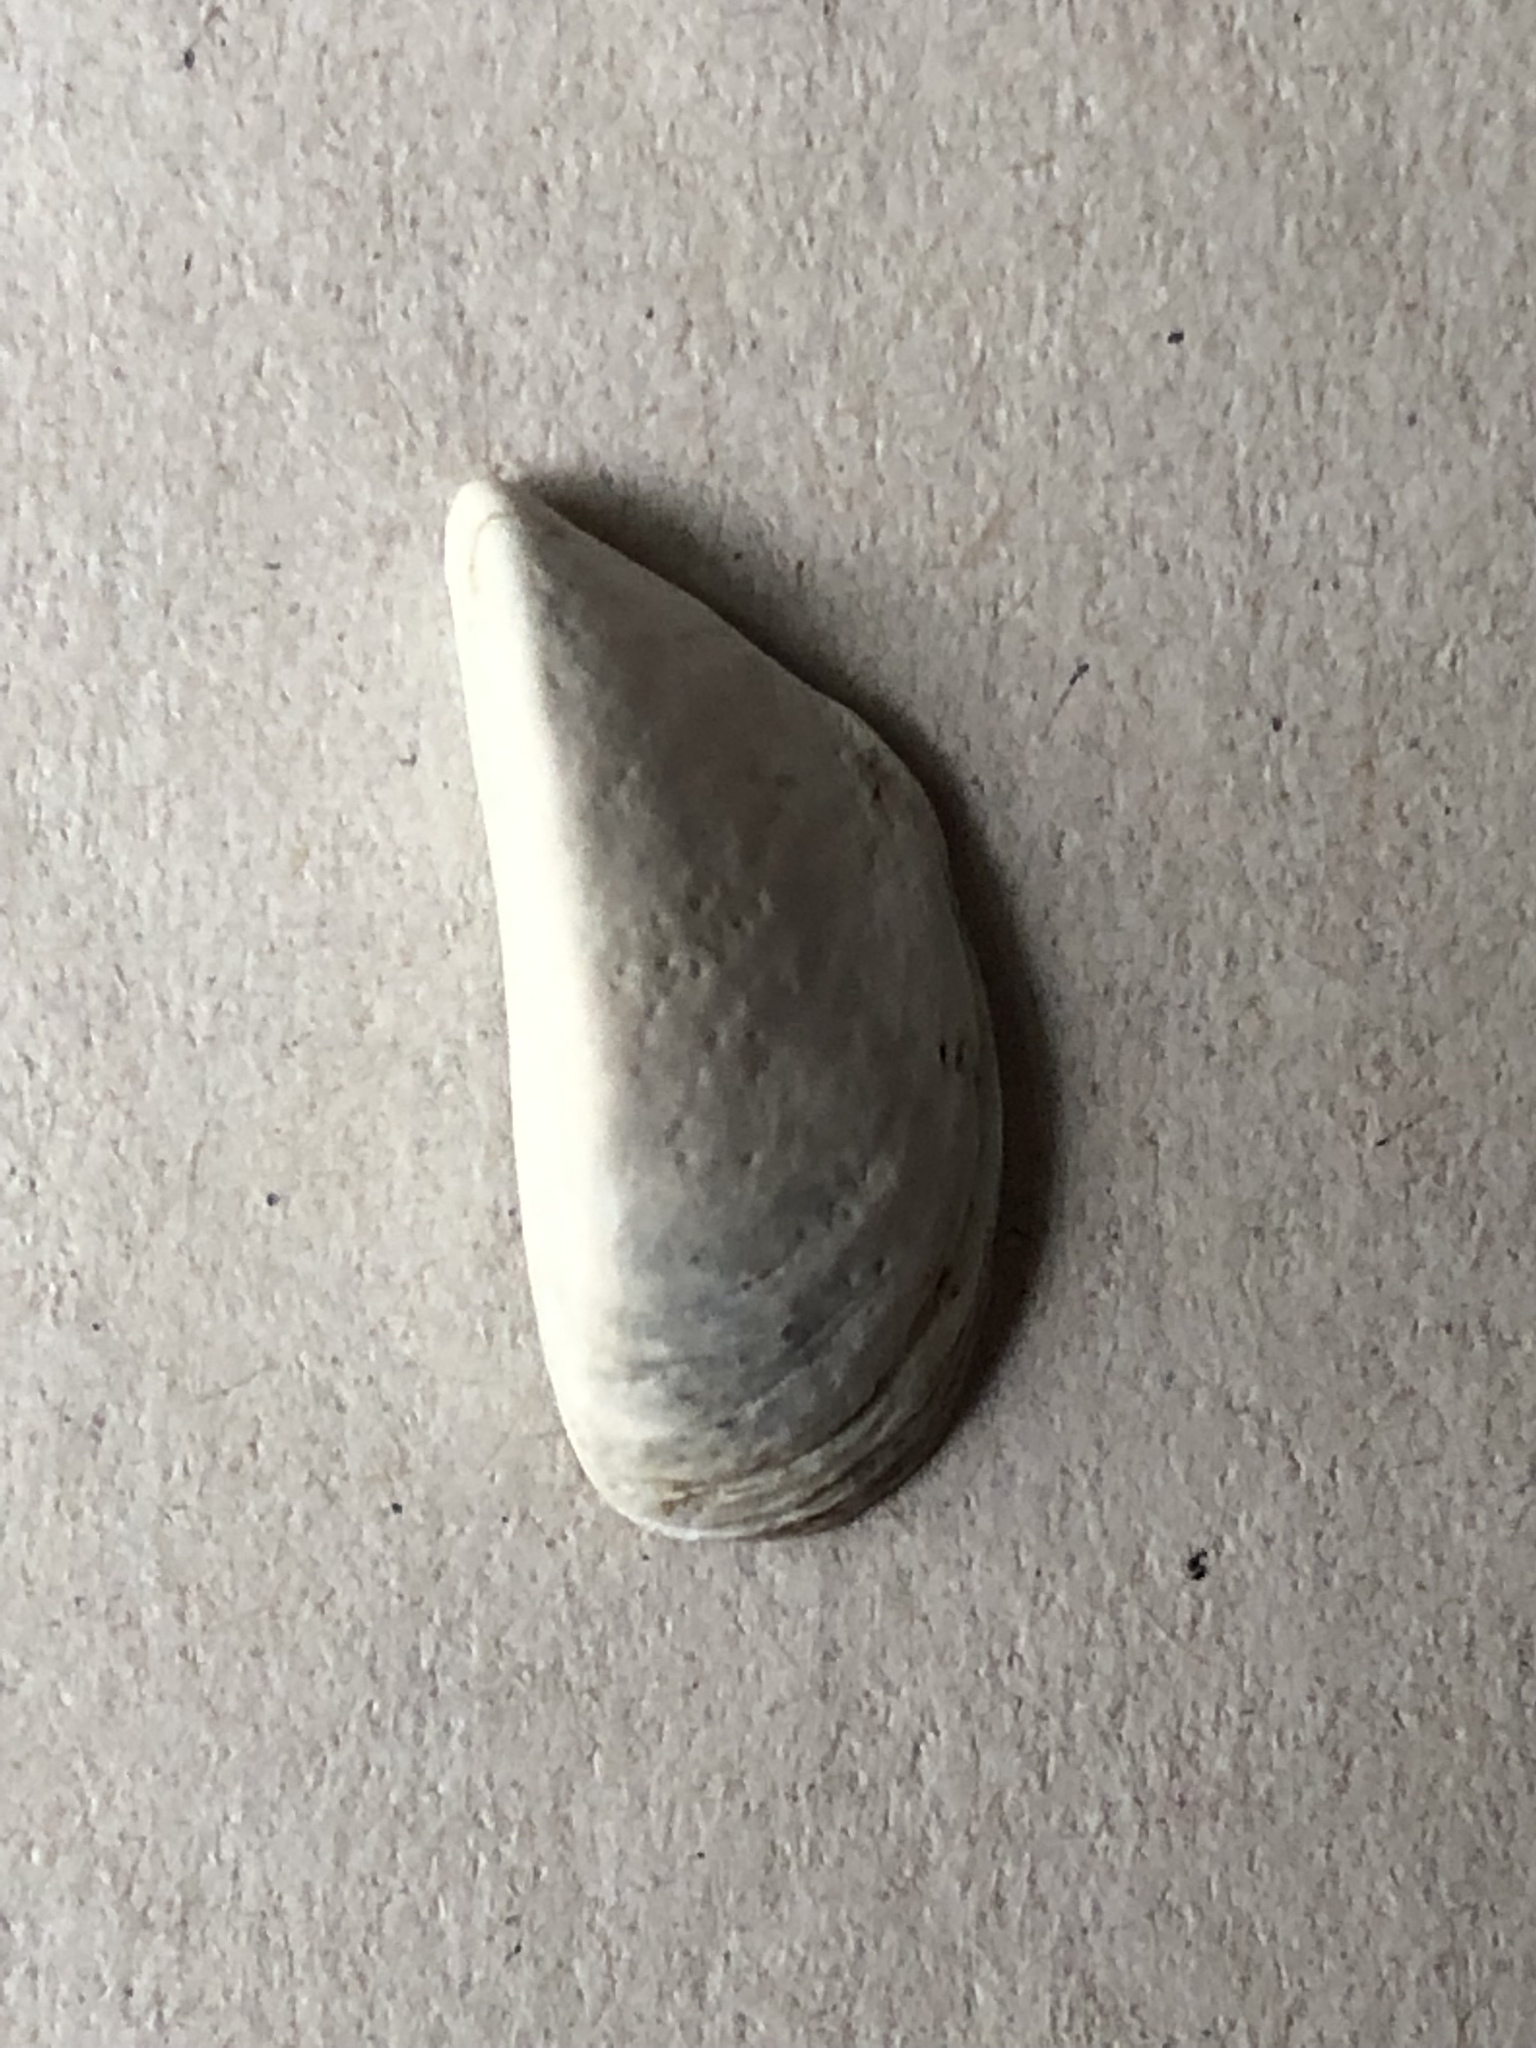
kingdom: Animalia
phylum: Mollusca
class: Bivalvia
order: Myida
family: Dreissenidae
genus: Dreissena
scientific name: Dreissena polymorpha
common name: Zebra mussel
